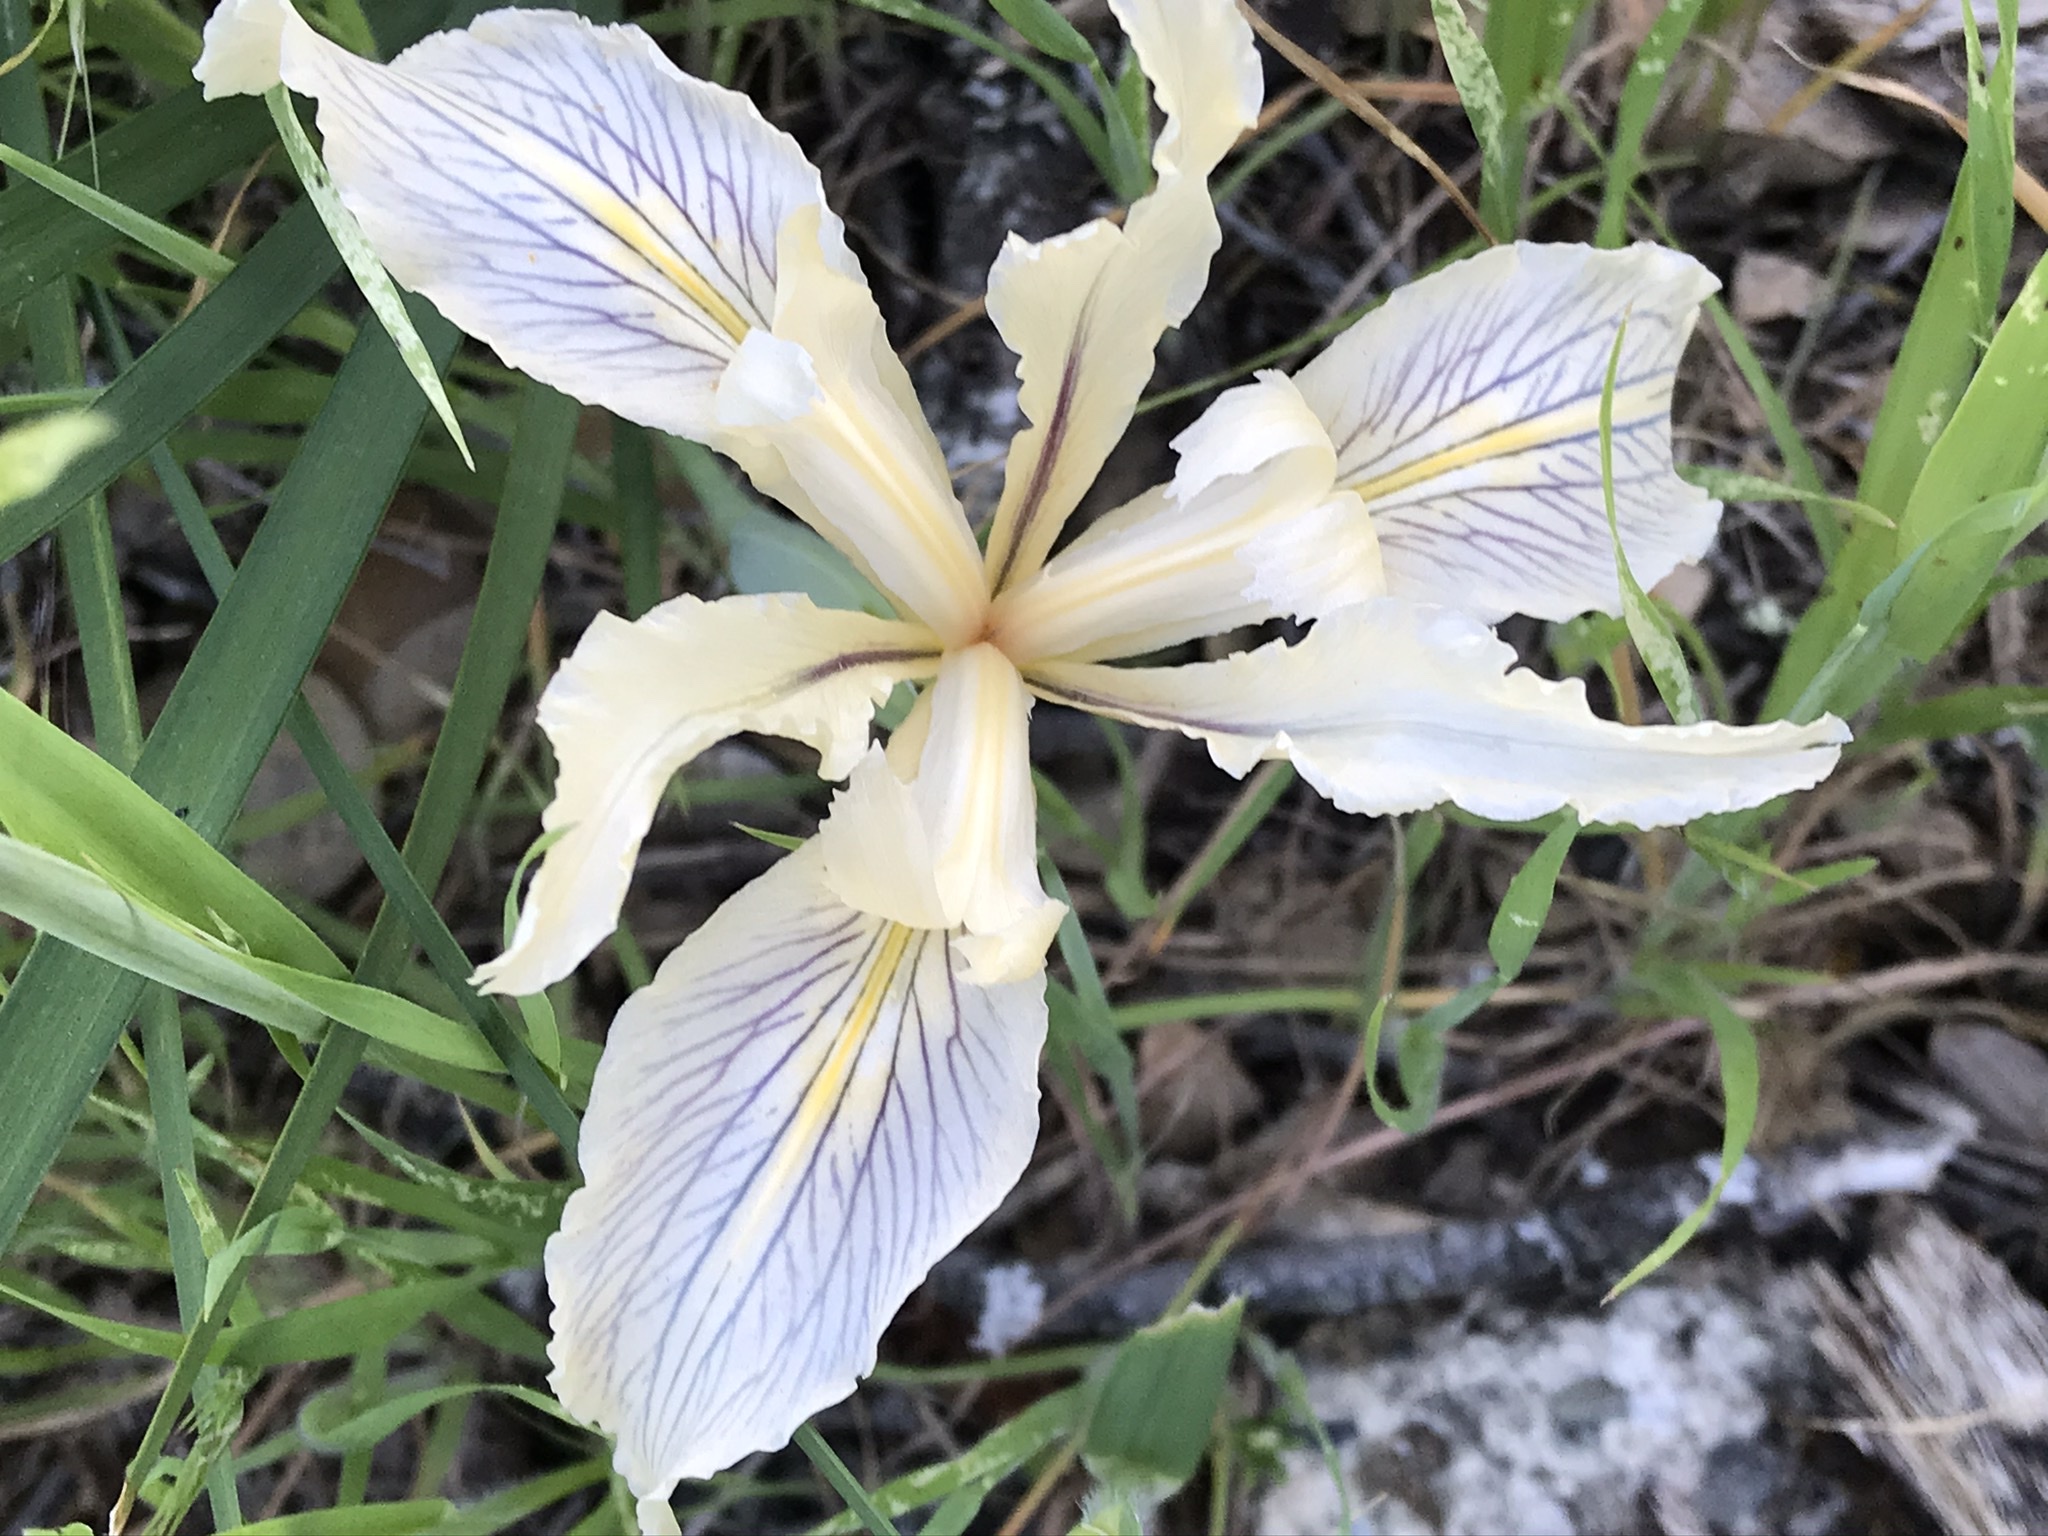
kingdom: Plantae
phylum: Tracheophyta
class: Liliopsida
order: Asparagales
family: Iridaceae
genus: Iris
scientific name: Iris fernaldii
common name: Fernald's iris
